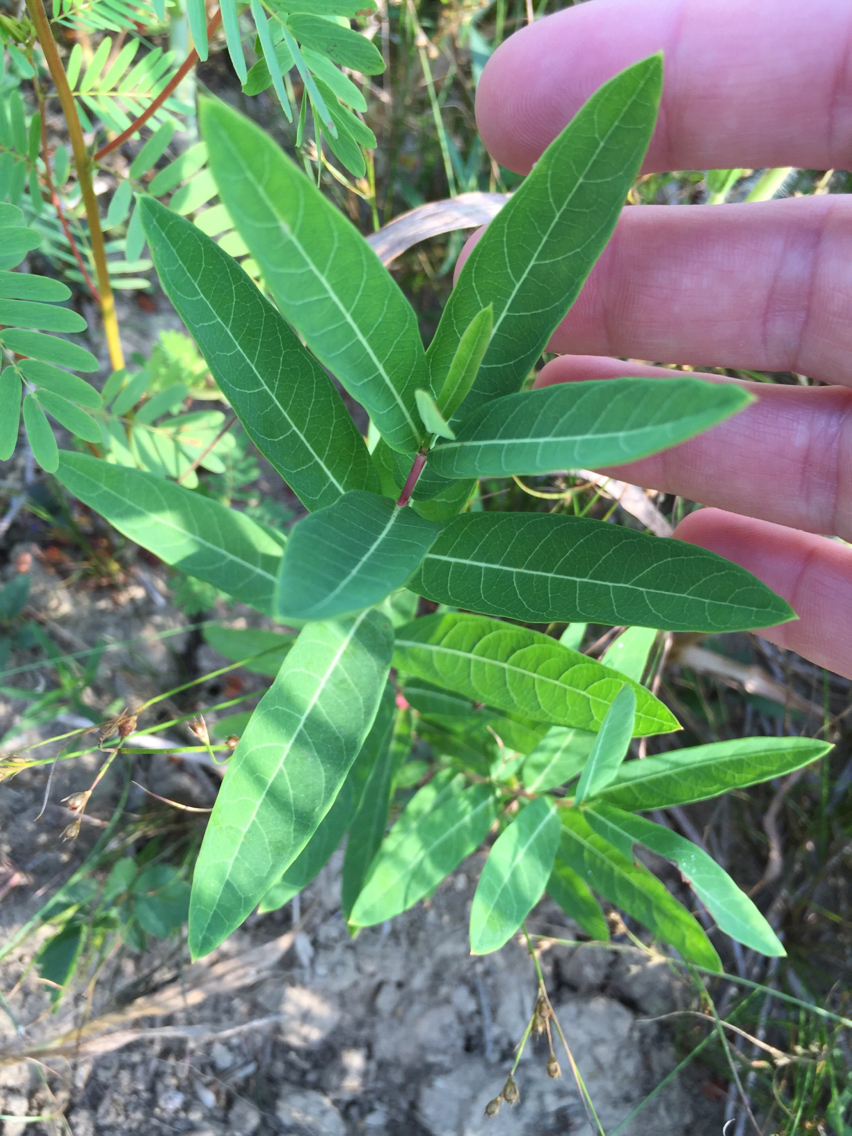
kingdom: Plantae
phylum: Tracheophyta
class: Magnoliopsida
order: Gentianales
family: Apocynaceae
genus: Apocynum
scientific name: Apocynum cannabinum
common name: Hemp dogbane
